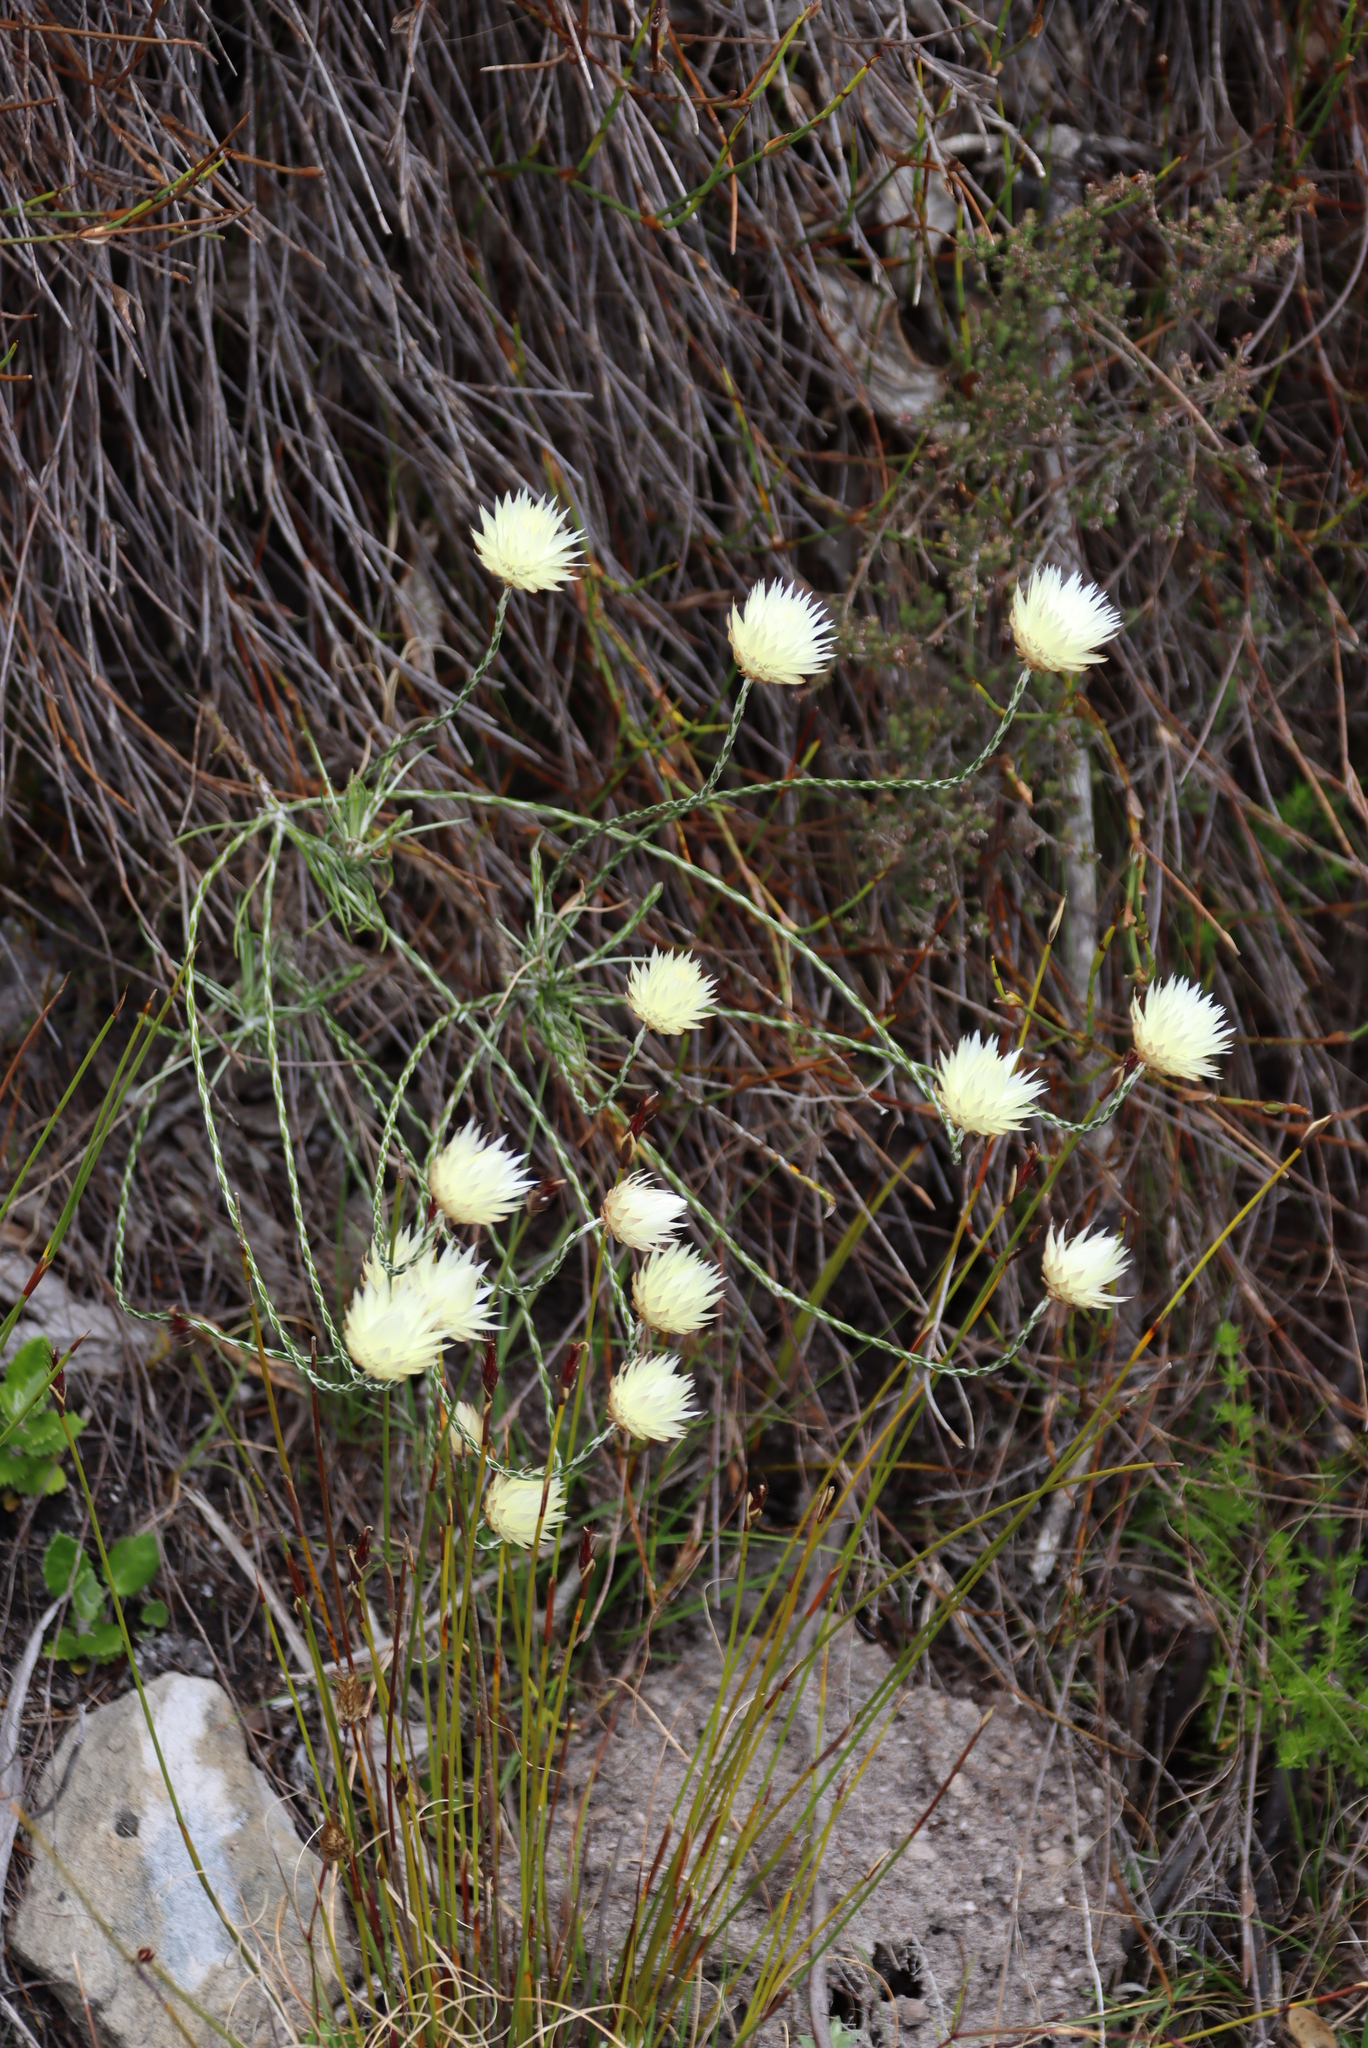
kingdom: Plantae
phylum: Tracheophyta
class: Magnoliopsida
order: Asterales
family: Asteraceae
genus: Edmondia
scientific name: Edmondia sesamoides
